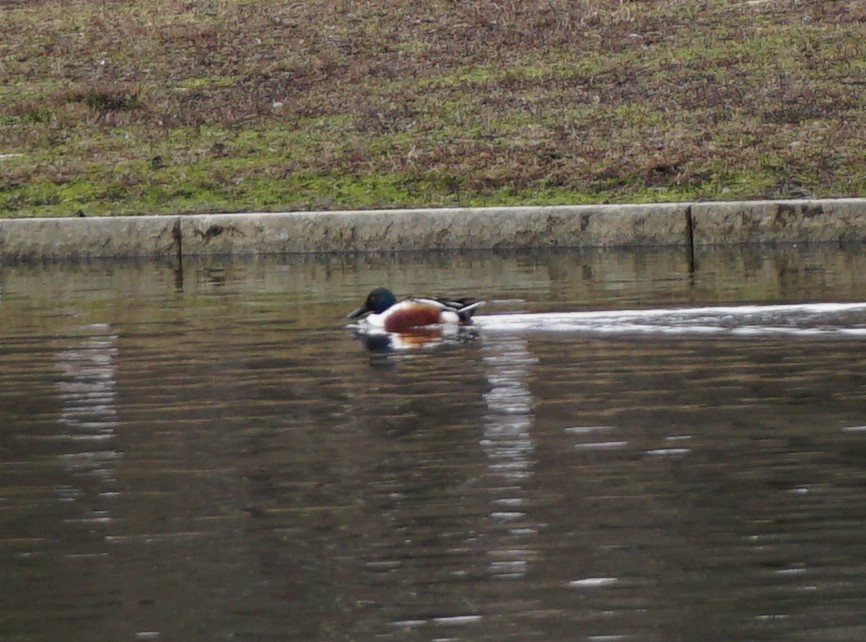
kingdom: Animalia
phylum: Chordata
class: Aves
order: Anseriformes
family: Anatidae
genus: Spatula
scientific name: Spatula clypeata
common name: Northern shoveler
